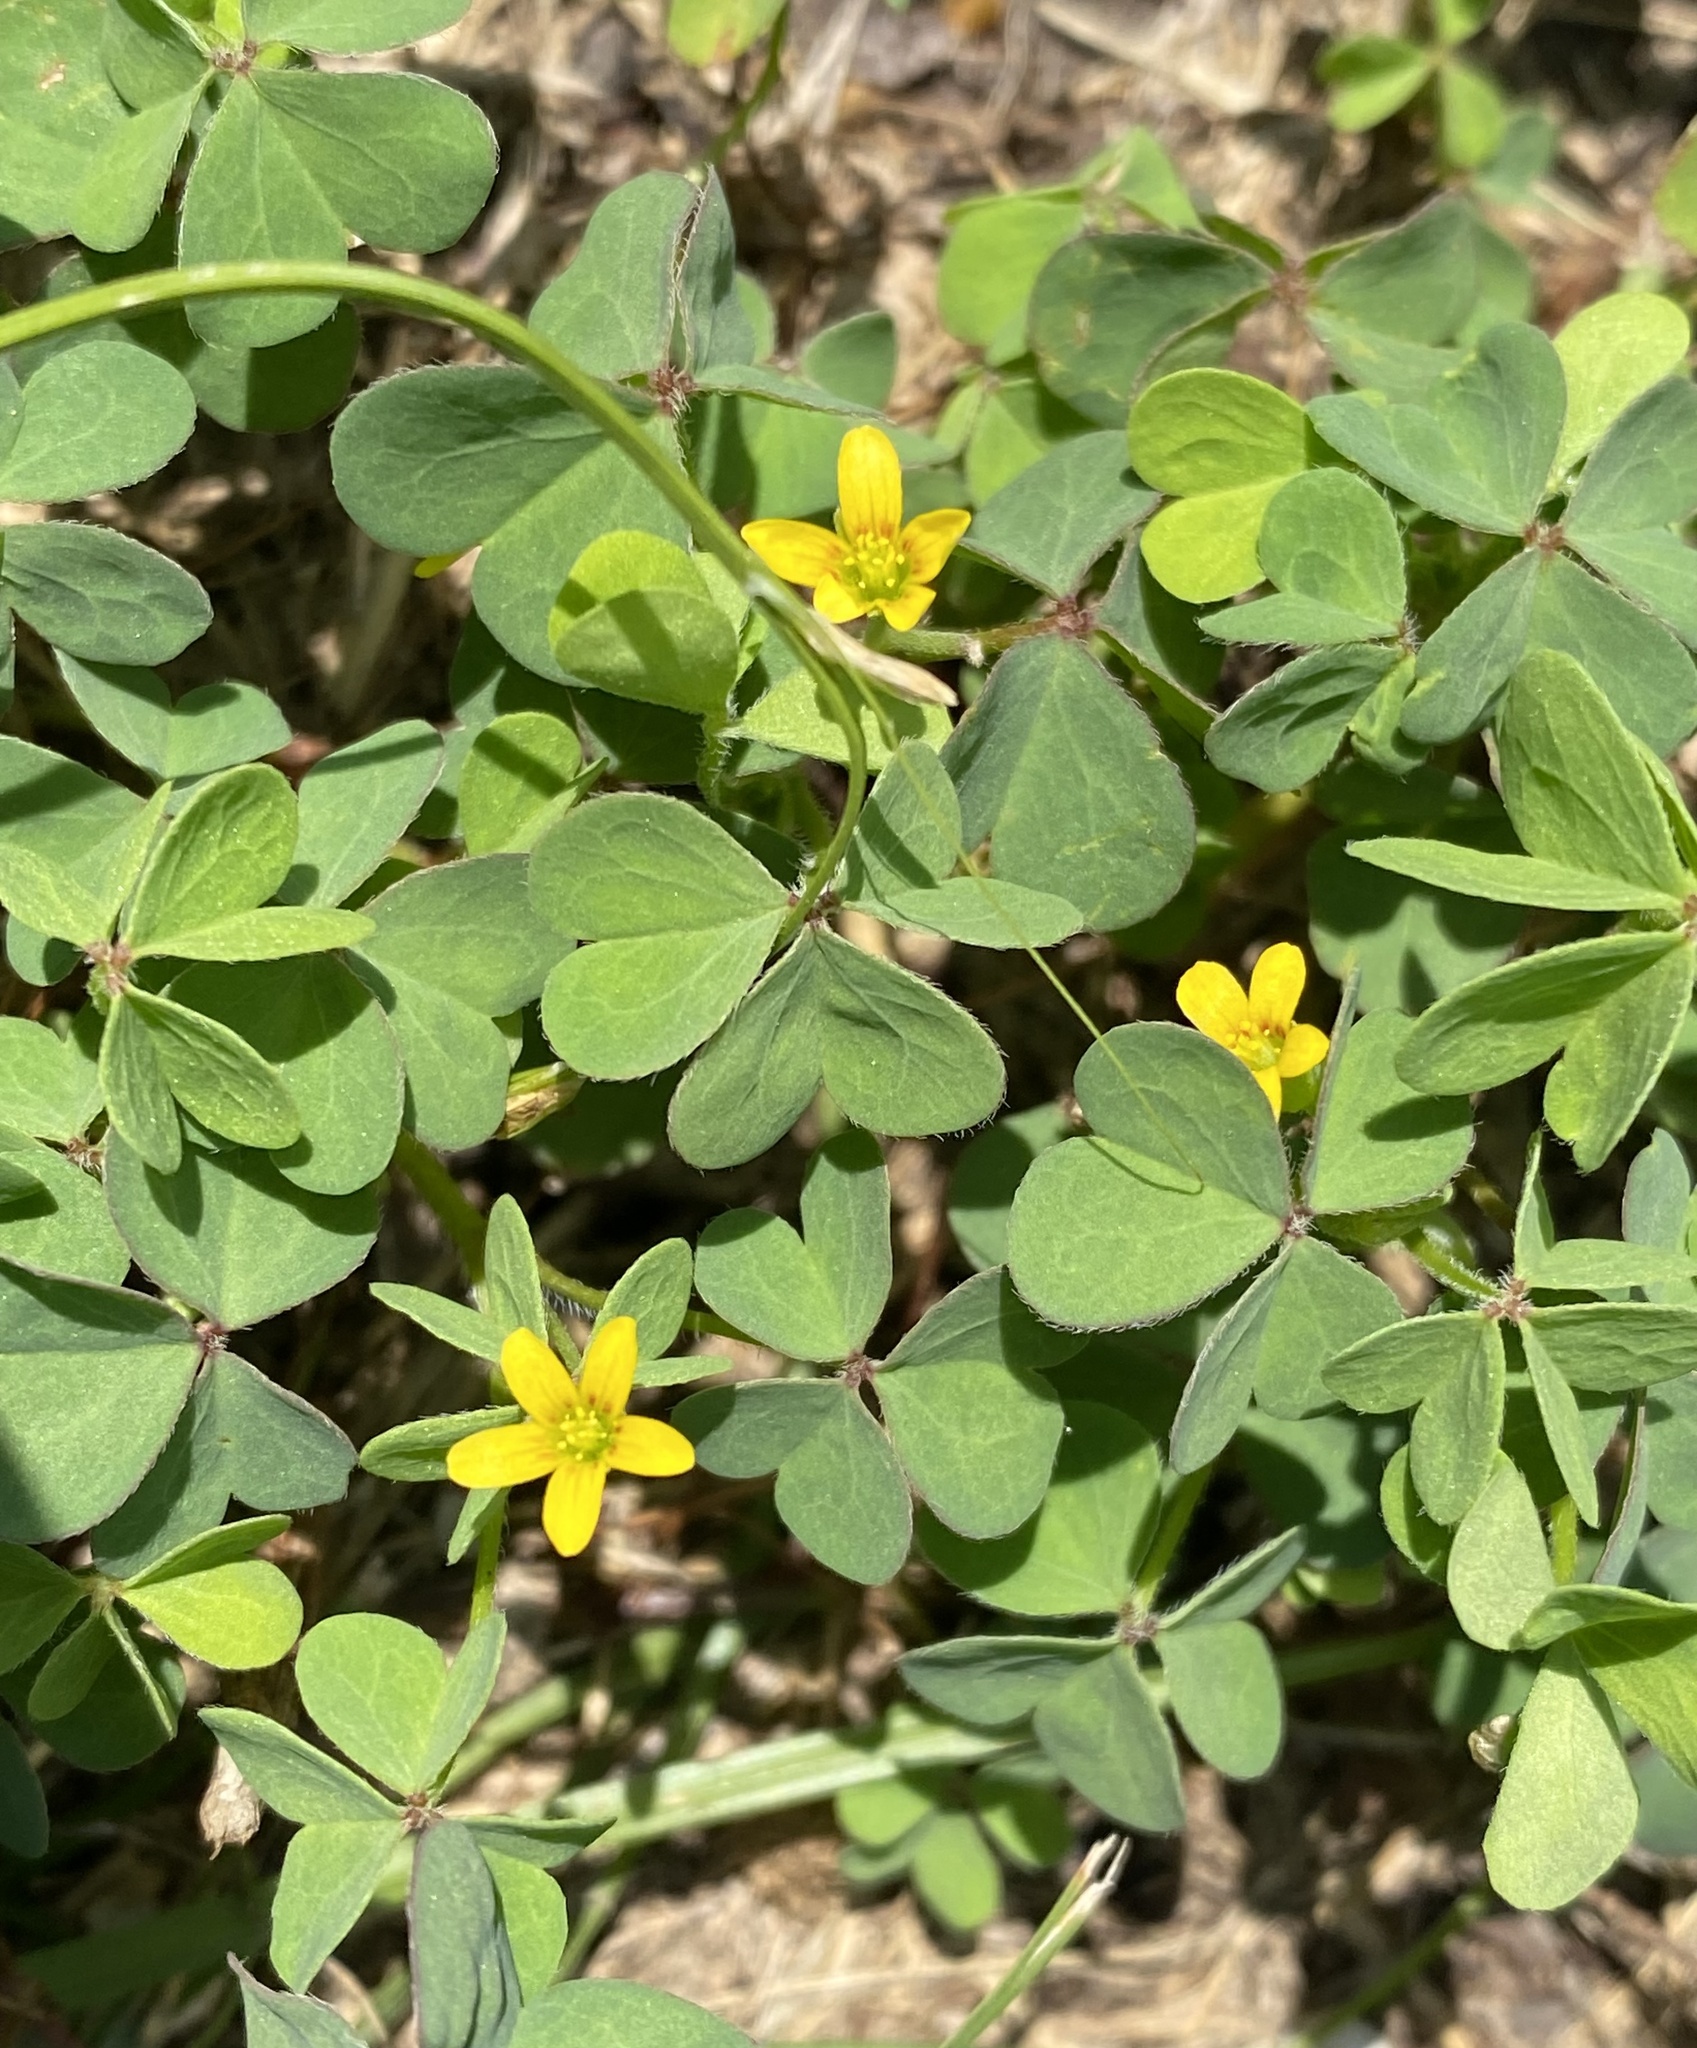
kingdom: Plantae
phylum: Tracheophyta
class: Magnoliopsida
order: Oxalidales
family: Oxalidaceae
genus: Oxalis
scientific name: Oxalis corniculata
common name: Procumbent yellow-sorrel
